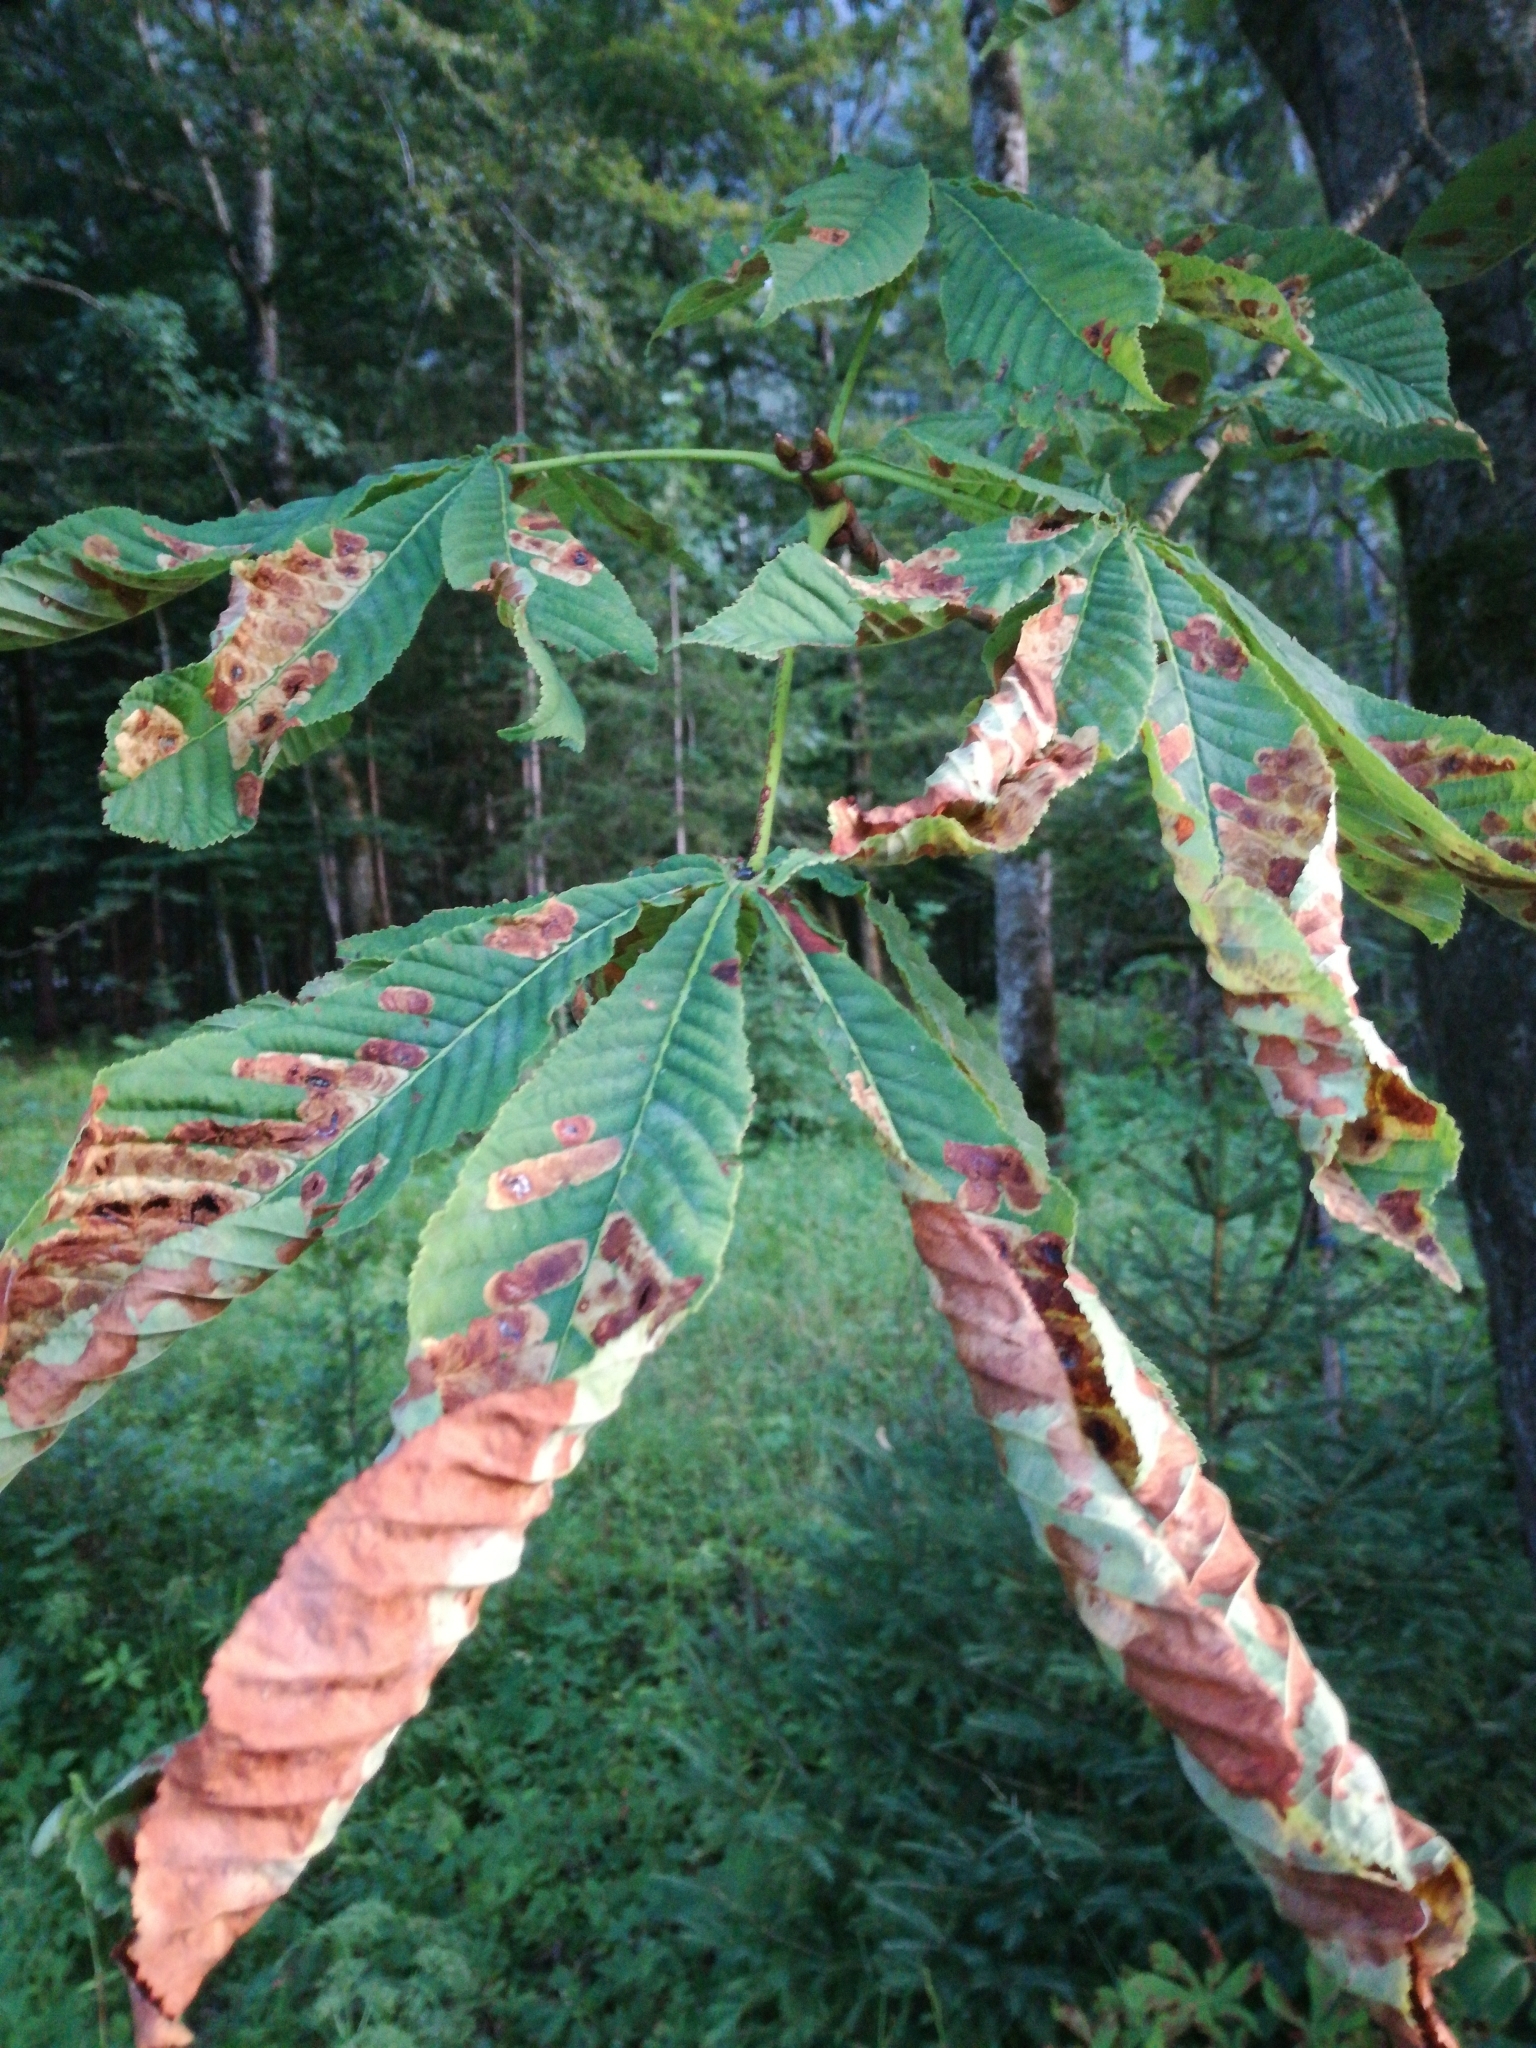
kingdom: Plantae
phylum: Tracheophyta
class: Magnoliopsida
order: Sapindales
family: Sapindaceae
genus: Aesculus
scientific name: Aesculus hippocastanum
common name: Horse-chestnut
